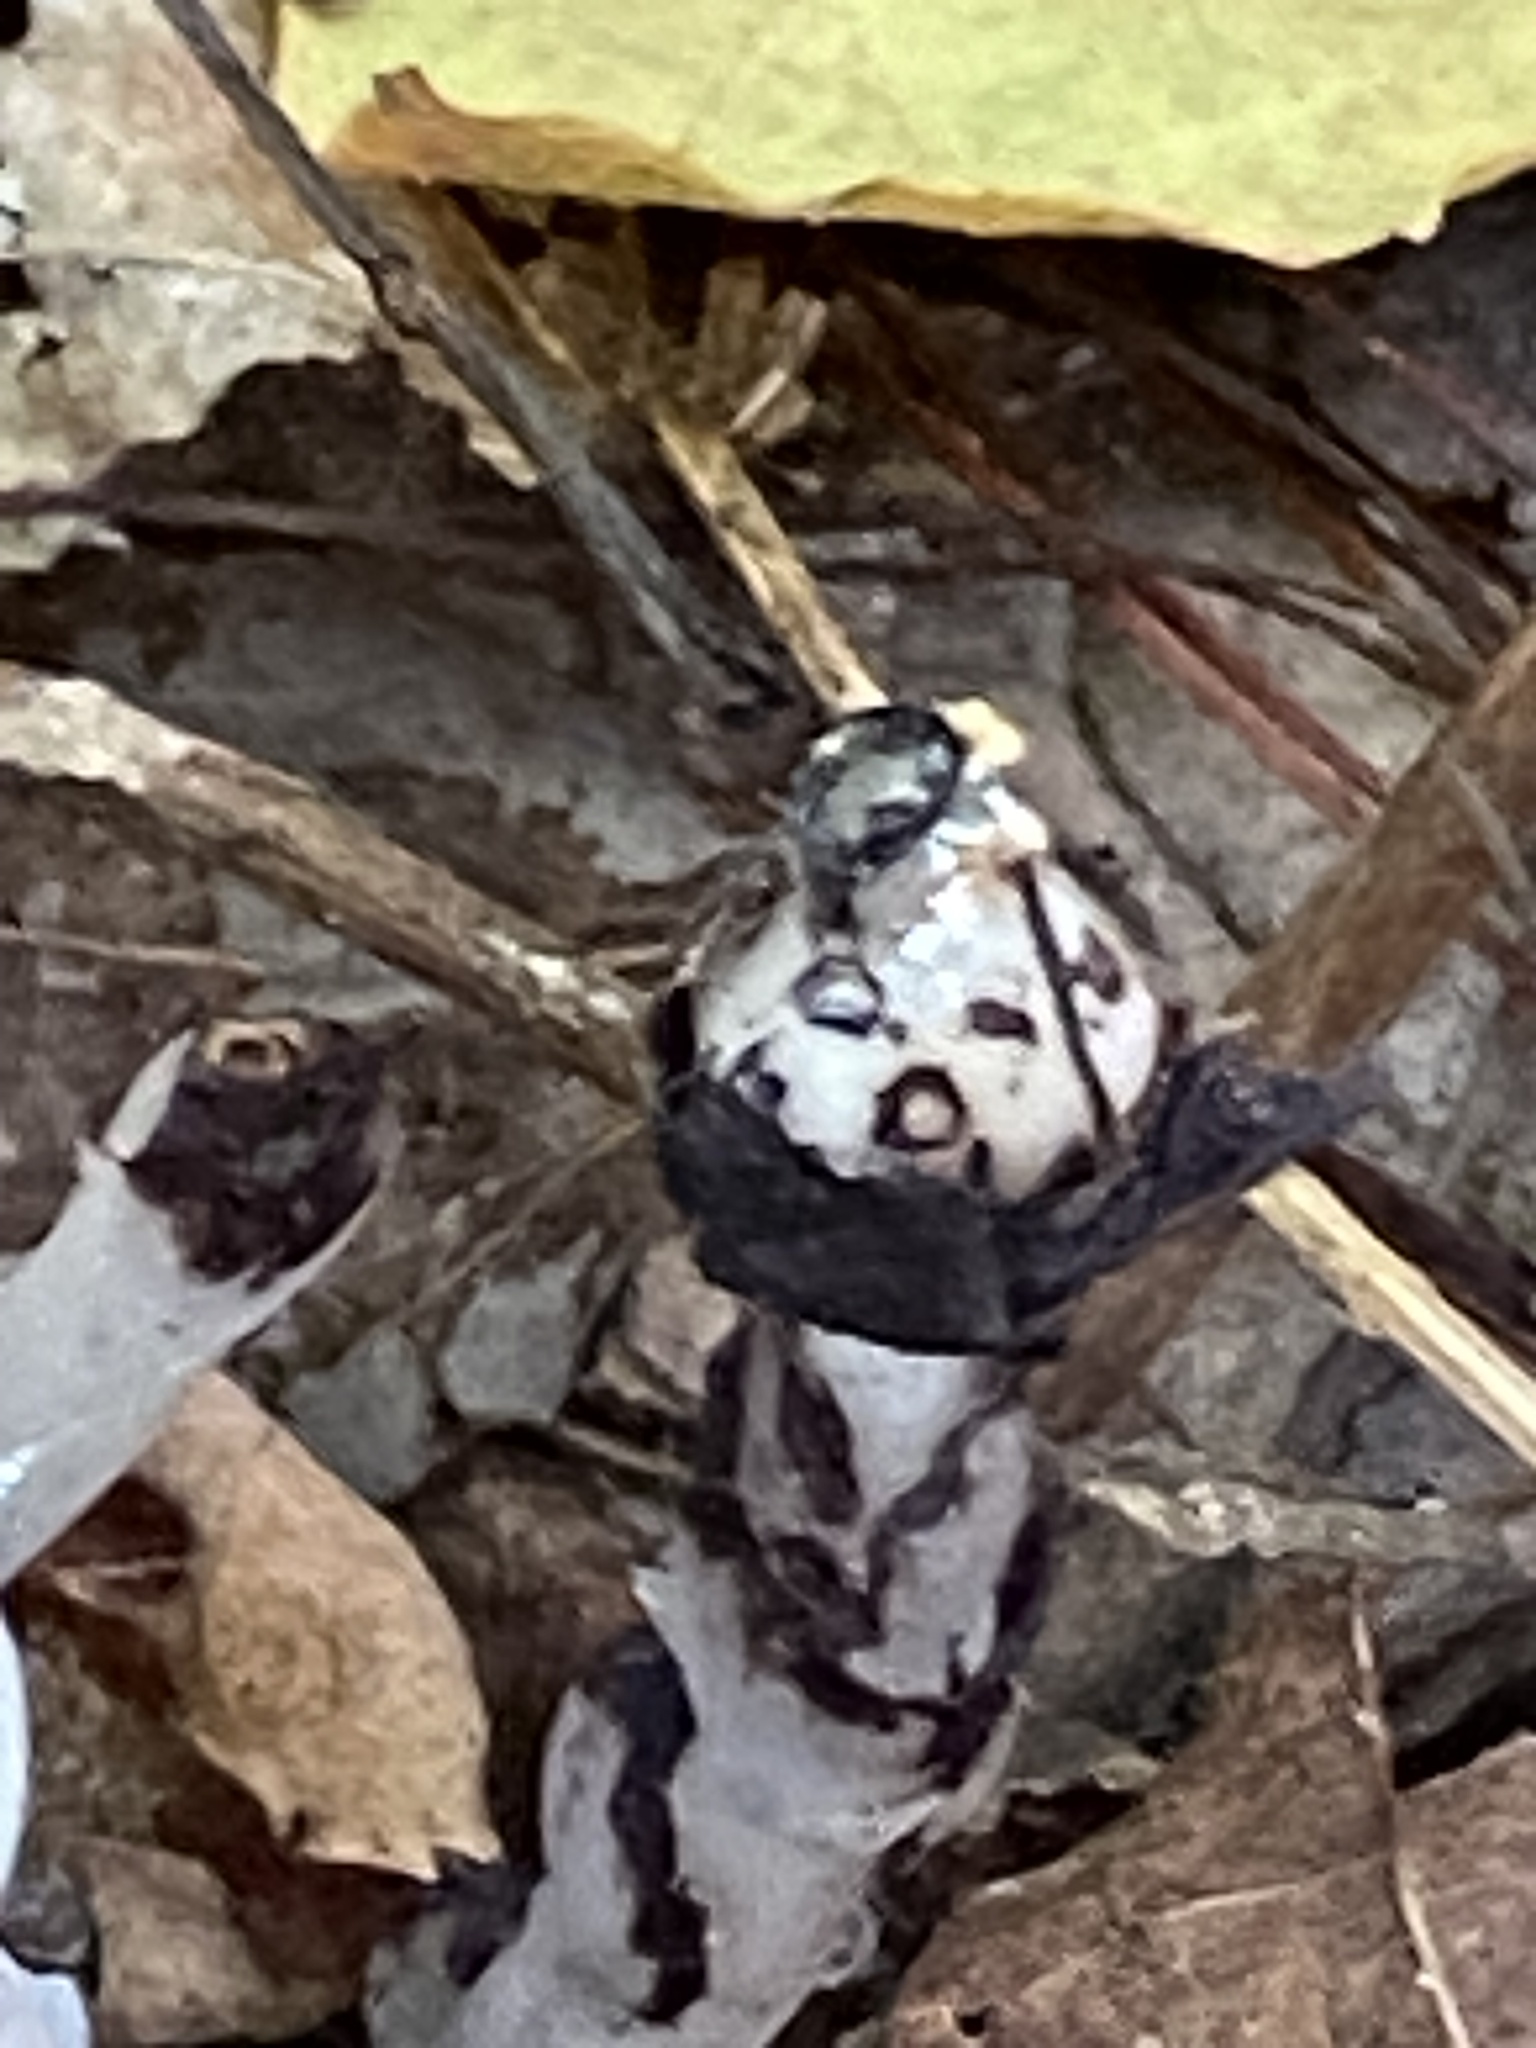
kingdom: Plantae
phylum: Tracheophyta
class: Magnoliopsida
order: Ericales
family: Ericaceae
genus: Monotropa
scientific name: Monotropa uniflora
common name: Convulsion root
